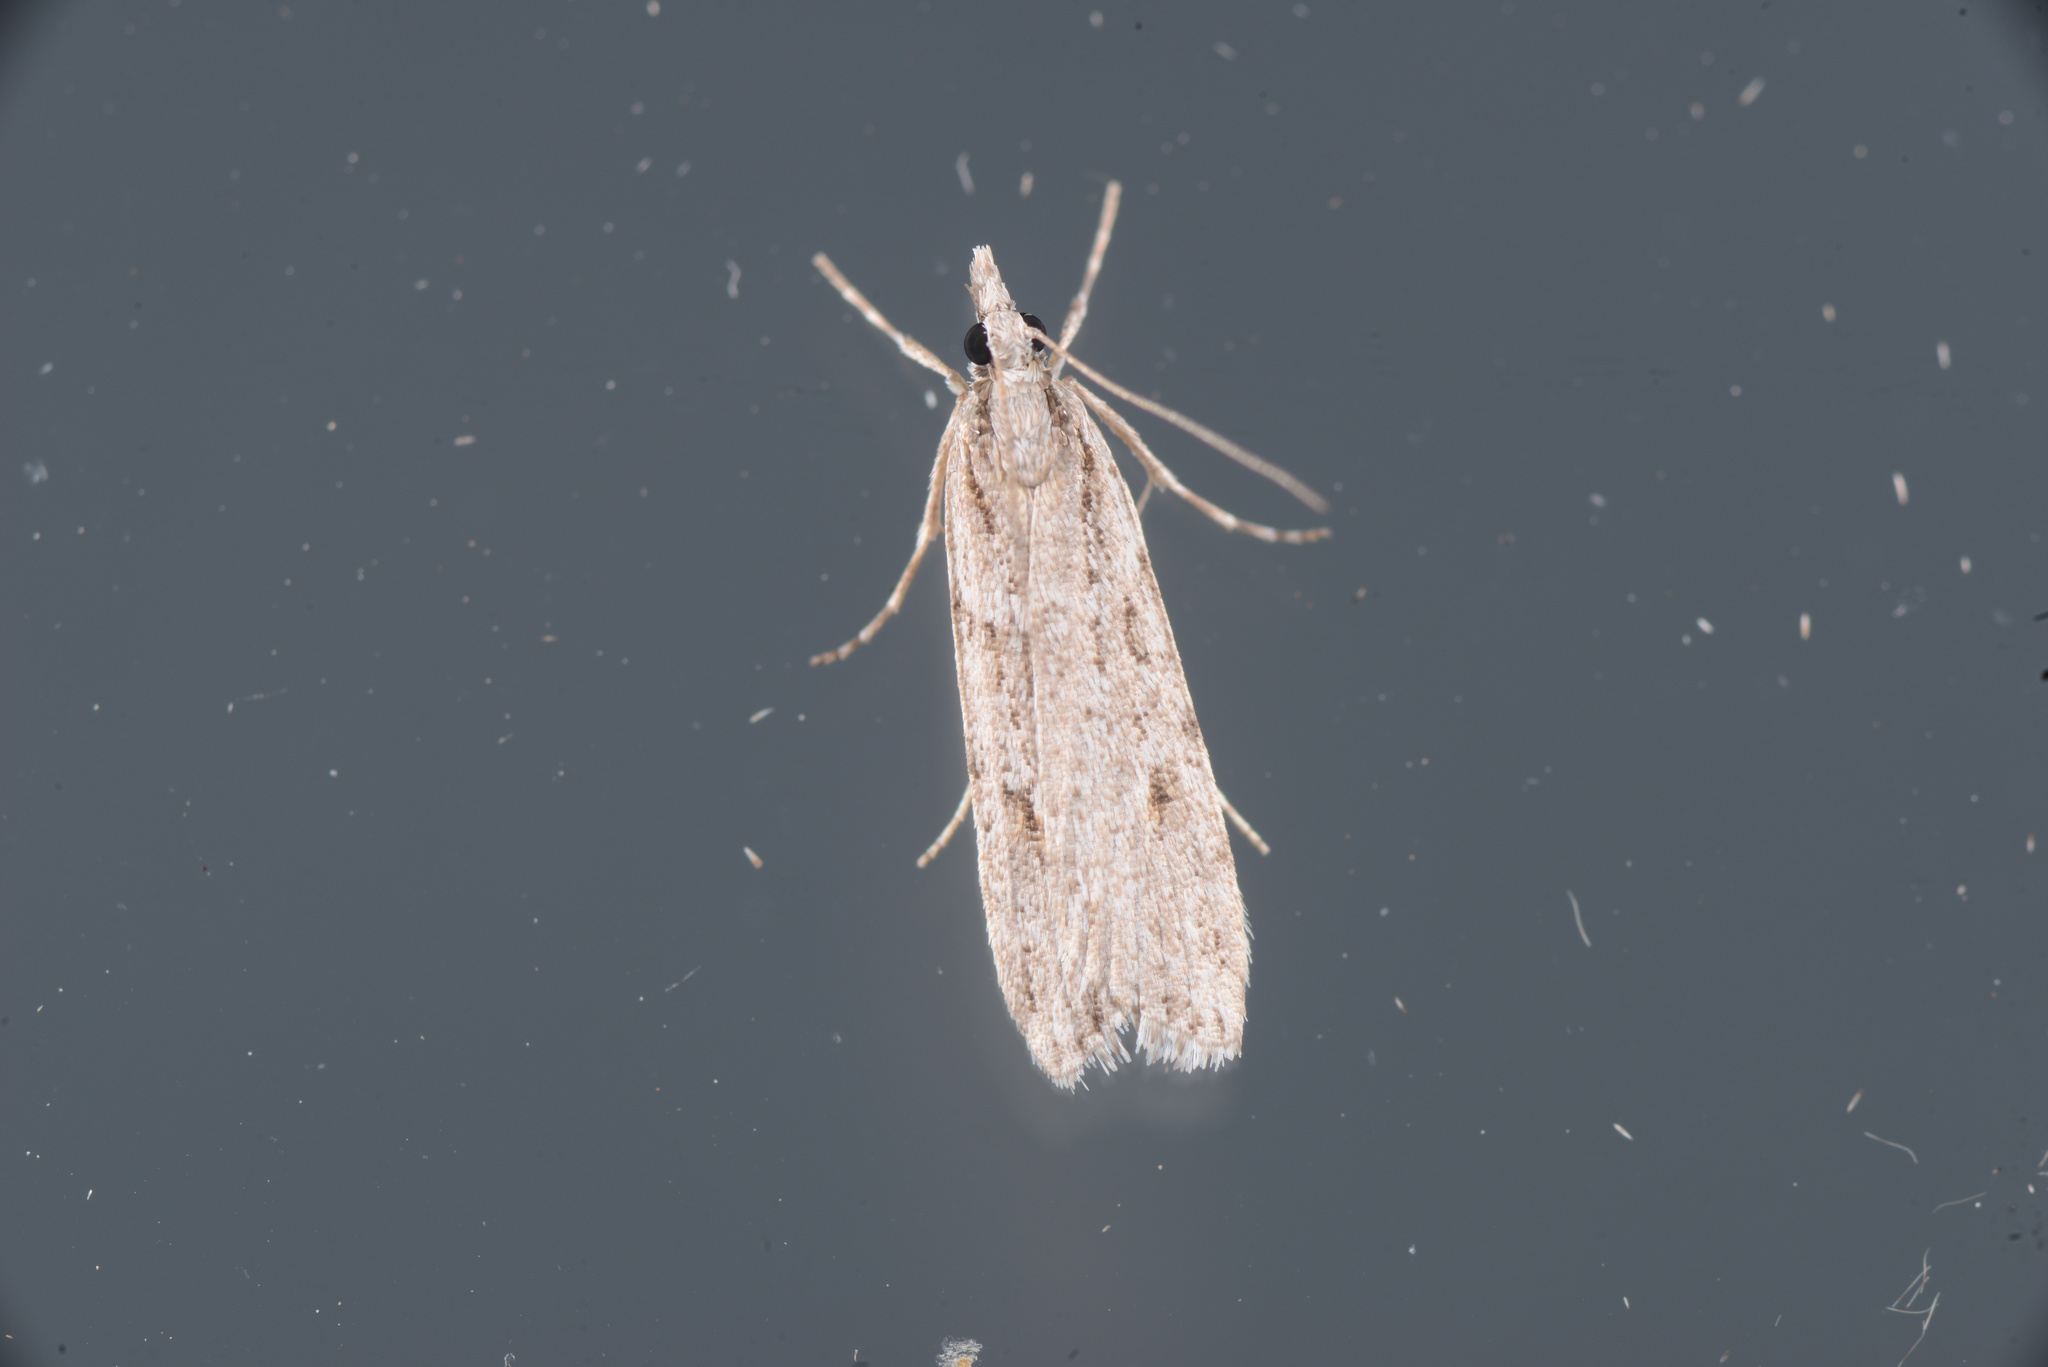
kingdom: Animalia
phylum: Arthropoda
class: Insecta
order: Lepidoptera
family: Crambidae
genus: Scoparia
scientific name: Scoparia chalicodes
